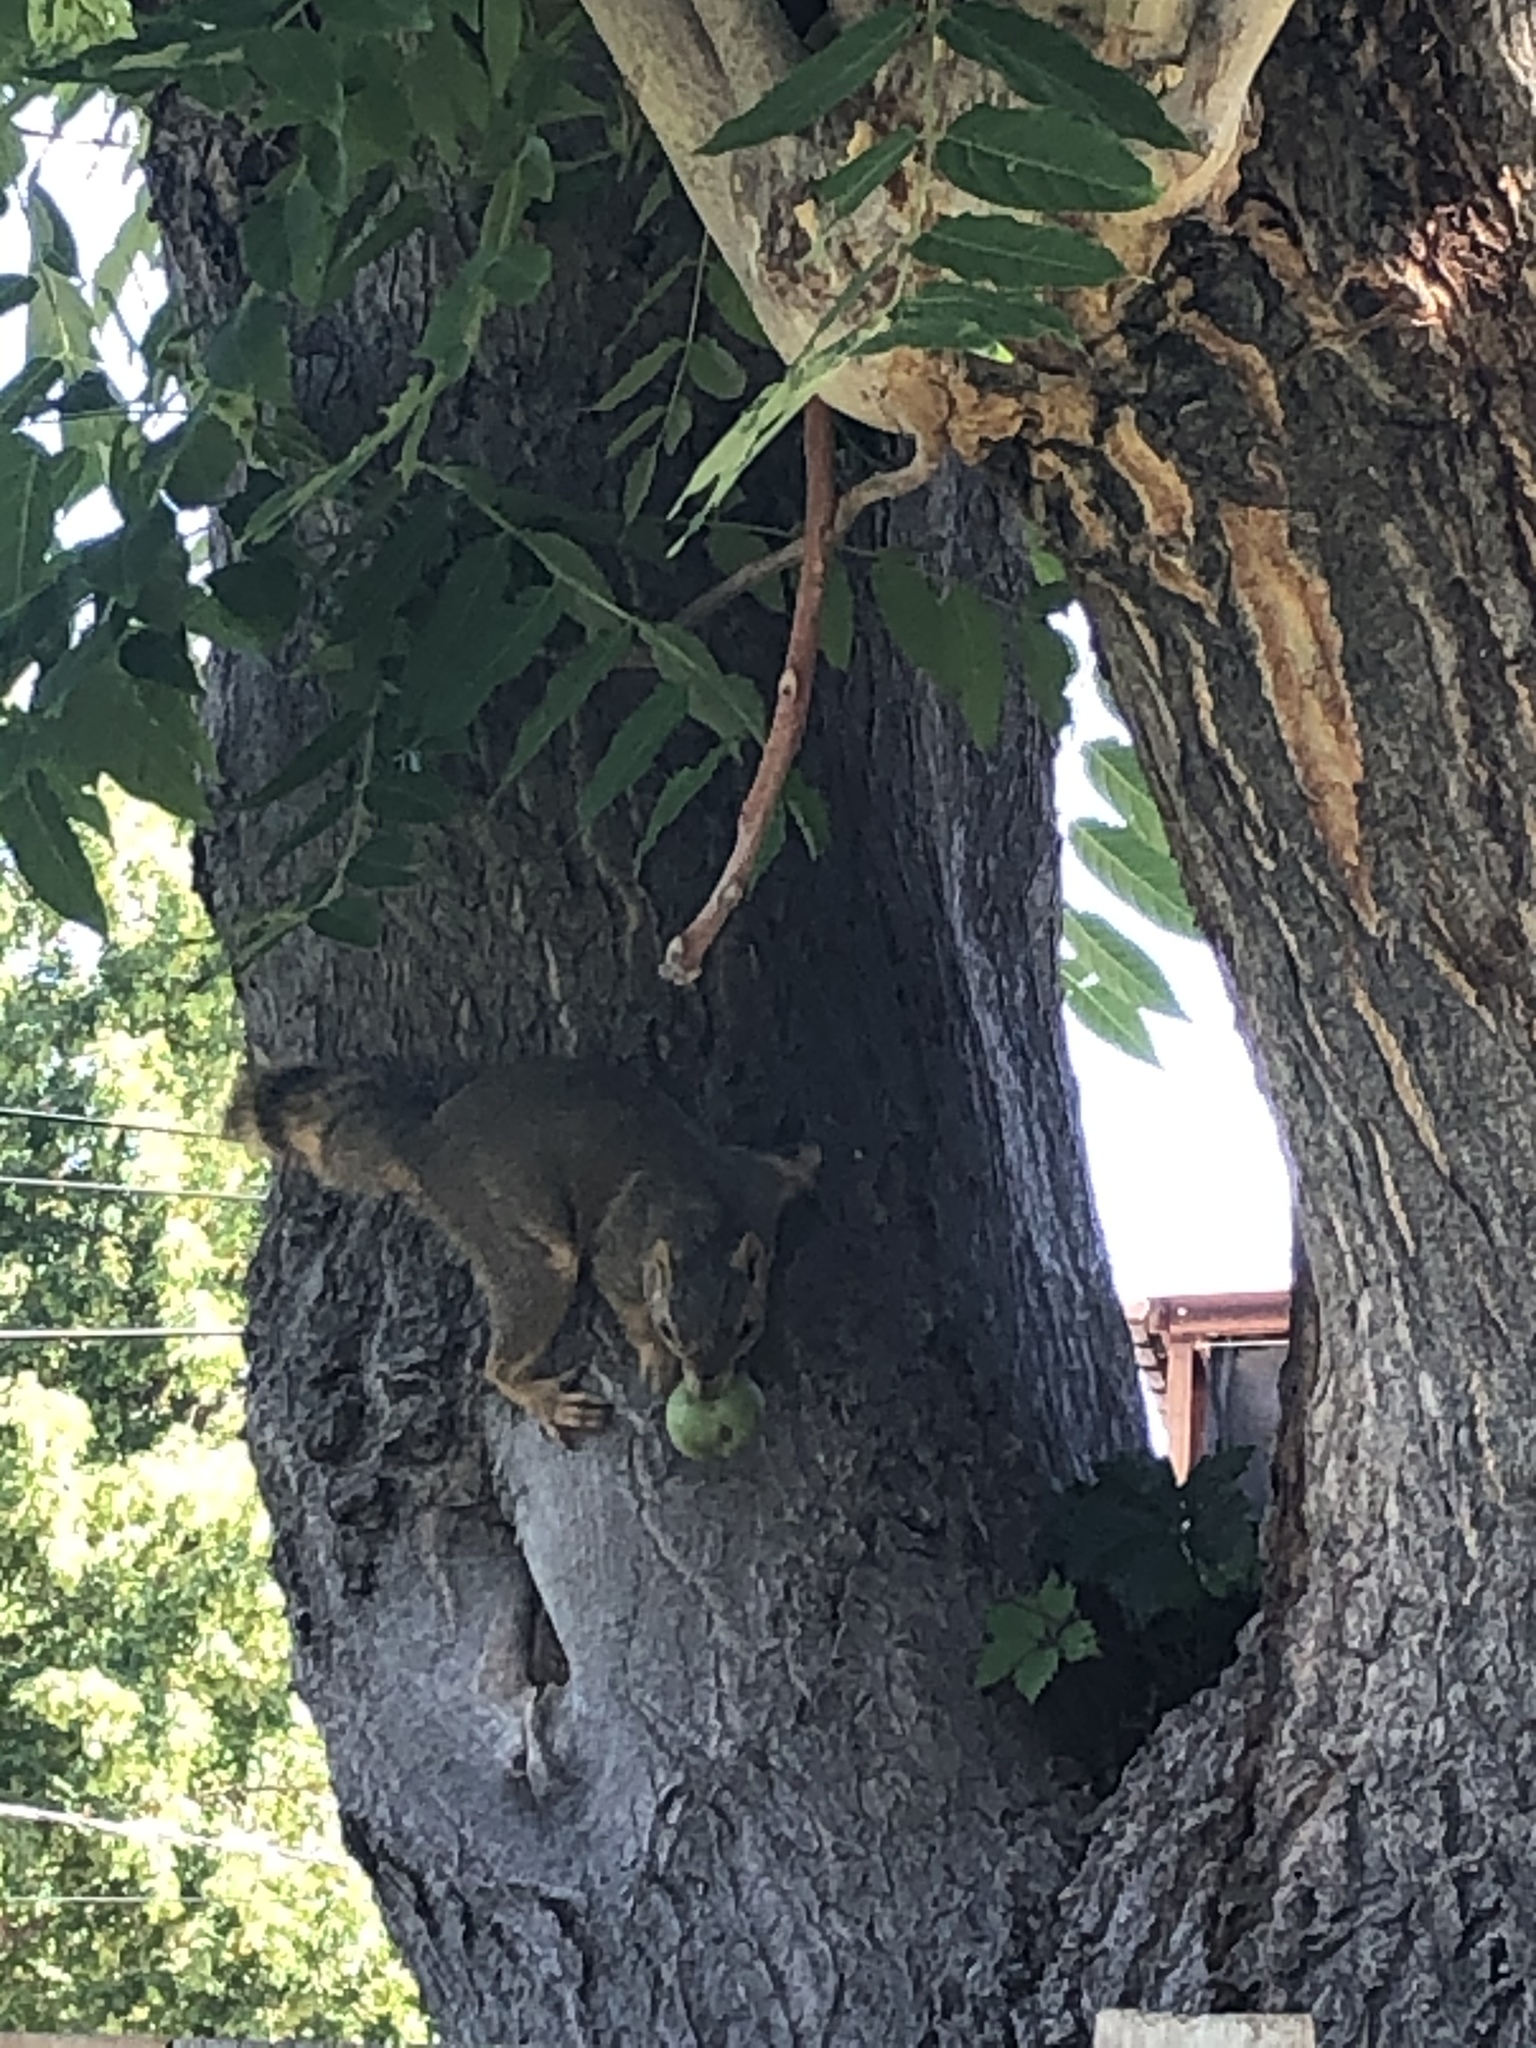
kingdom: Animalia
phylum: Chordata
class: Mammalia
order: Rodentia
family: Sciuridae
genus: Sciurus
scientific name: Sciurus niger
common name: Fox squirrel
